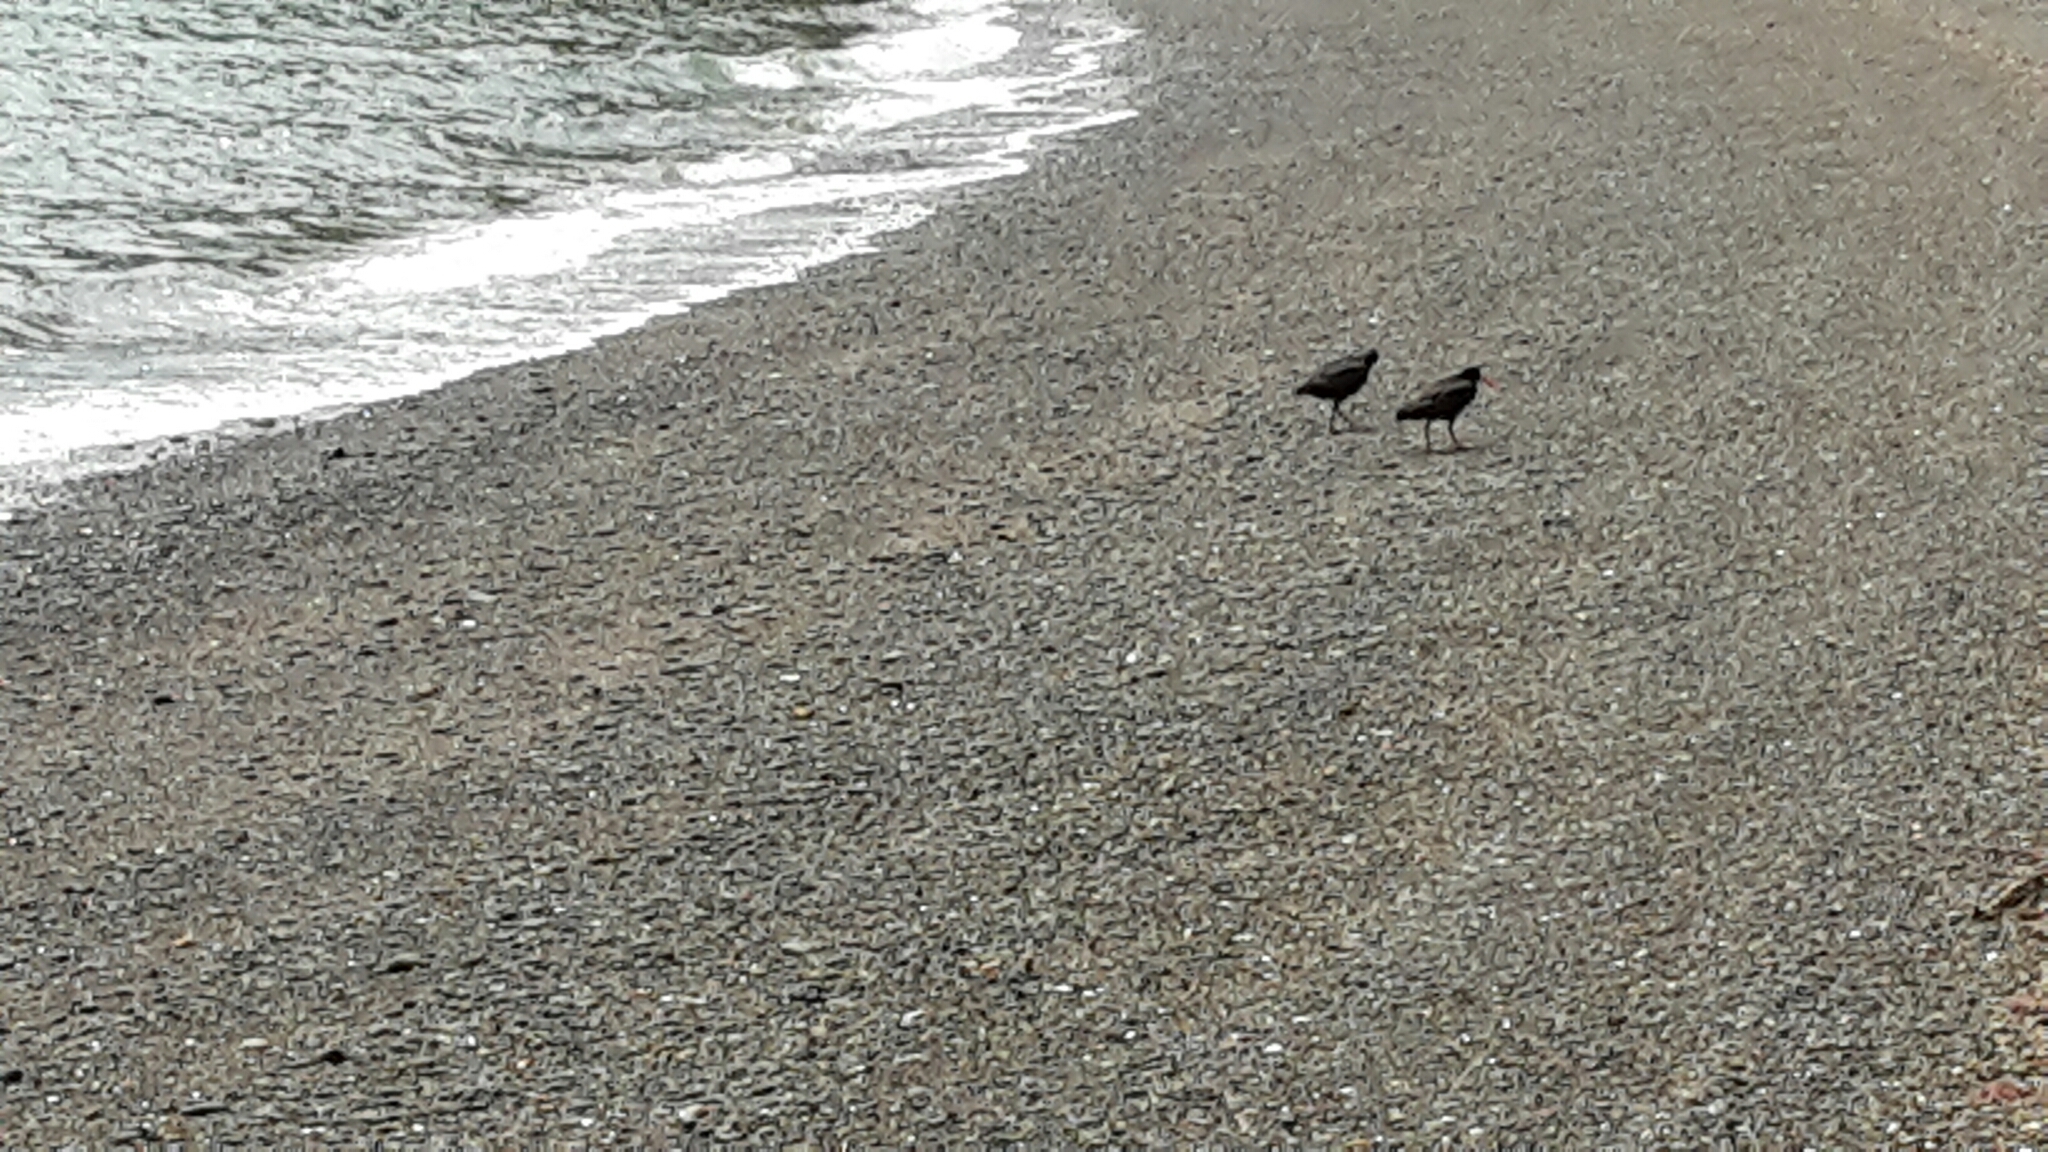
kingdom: Animalia
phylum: Chordata
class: Aves
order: Charadriiformes
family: Haematopodidae
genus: Haematopus
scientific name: Haematopus unicolor
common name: Variable oystercatcher
